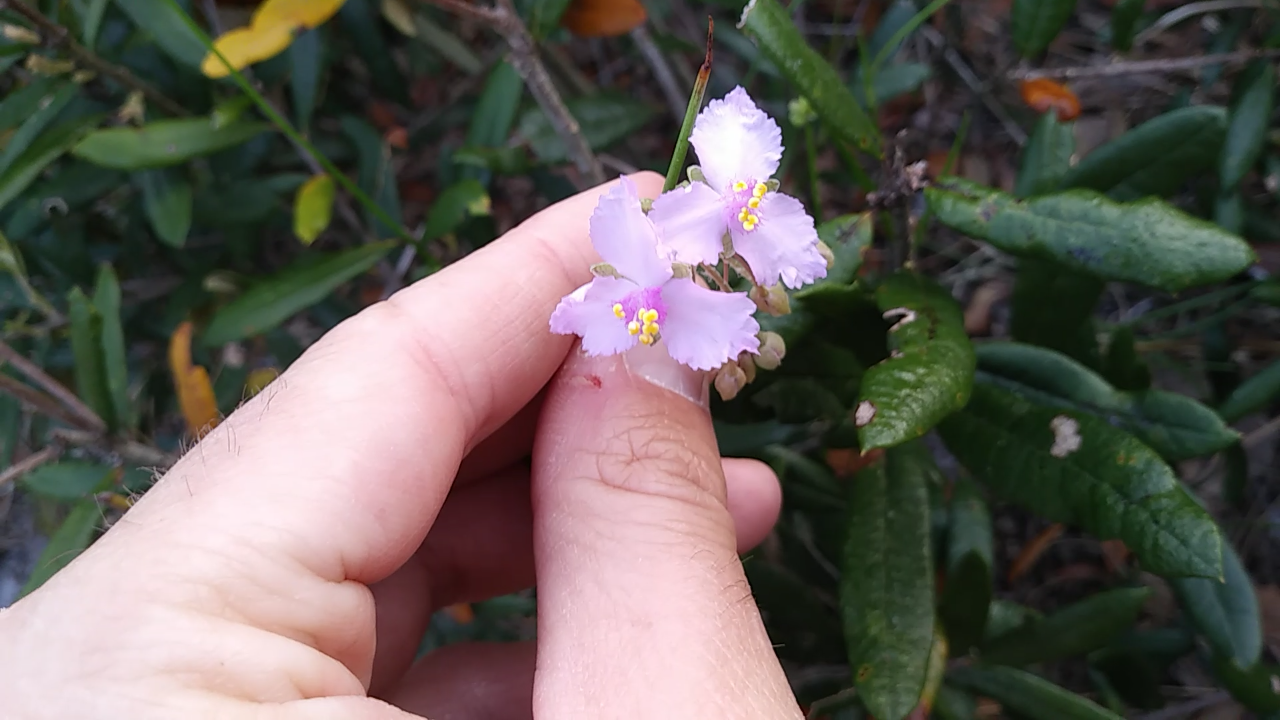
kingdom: Plantae
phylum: Tracheophyta
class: Liliopsida
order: Commelinales
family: Commelinaceae
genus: Callisia
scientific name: Callisia ornata
